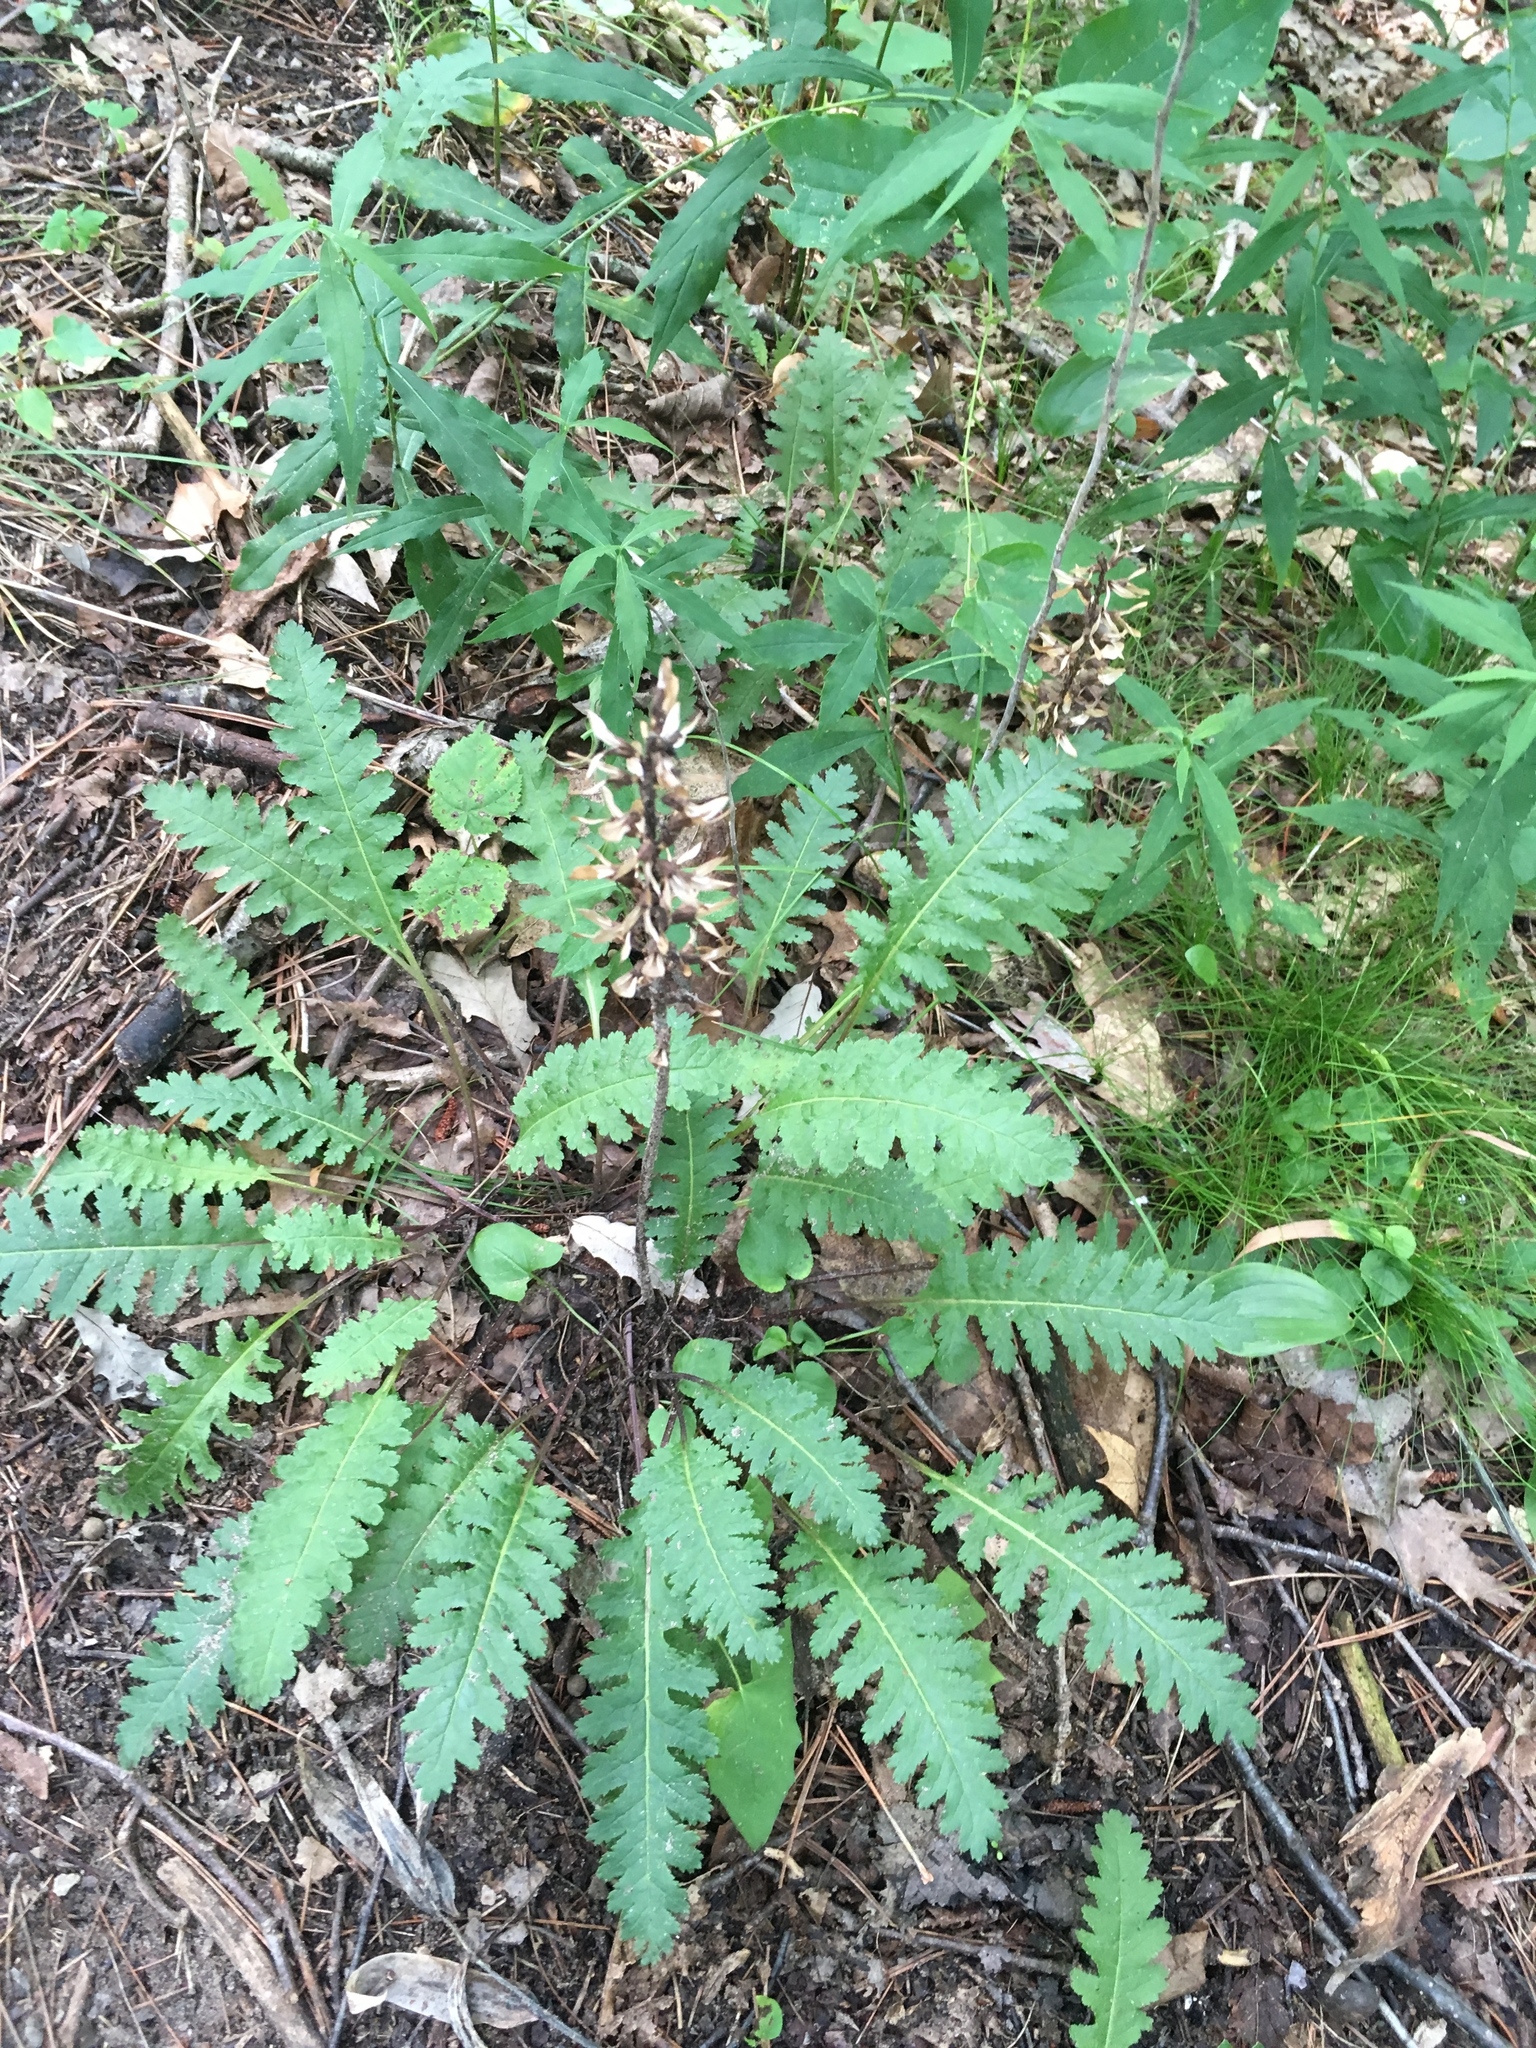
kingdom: Plantae
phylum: Tracheophyta
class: Magnoliopsida
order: Lamiales
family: Orobanchaceae
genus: Pedicularis
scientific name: Pedicularis canadensis
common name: Early lousewort
